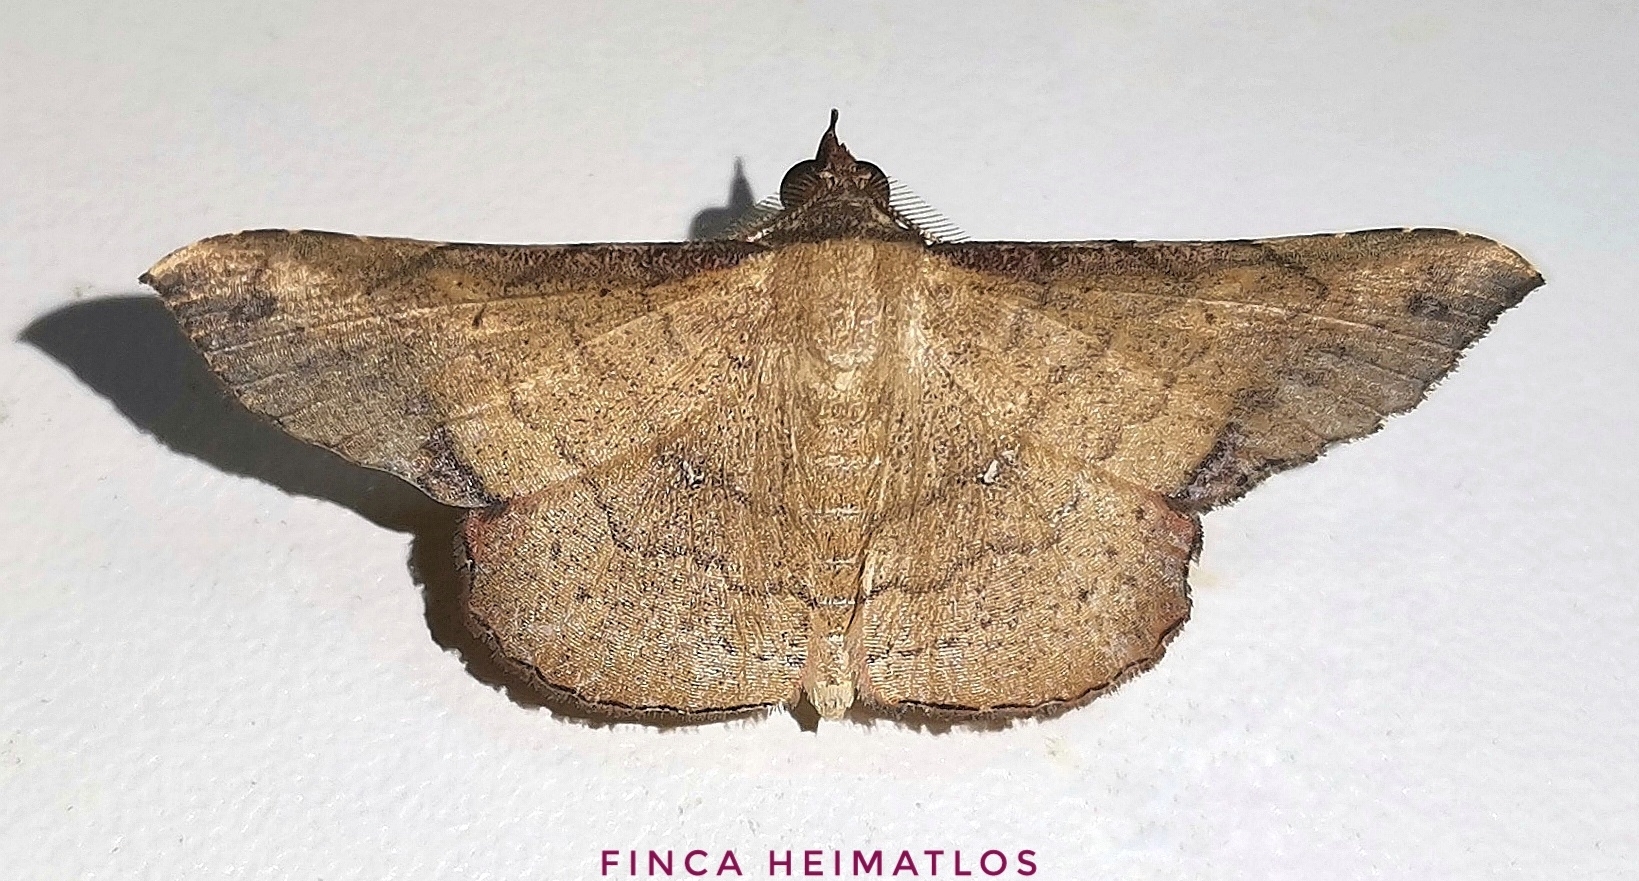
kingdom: Animalia
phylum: Arthropoda
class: Insecta
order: Lepidoptera
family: Erebidae
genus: Cryptochrostis
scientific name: Cryptochrostis duquefi
